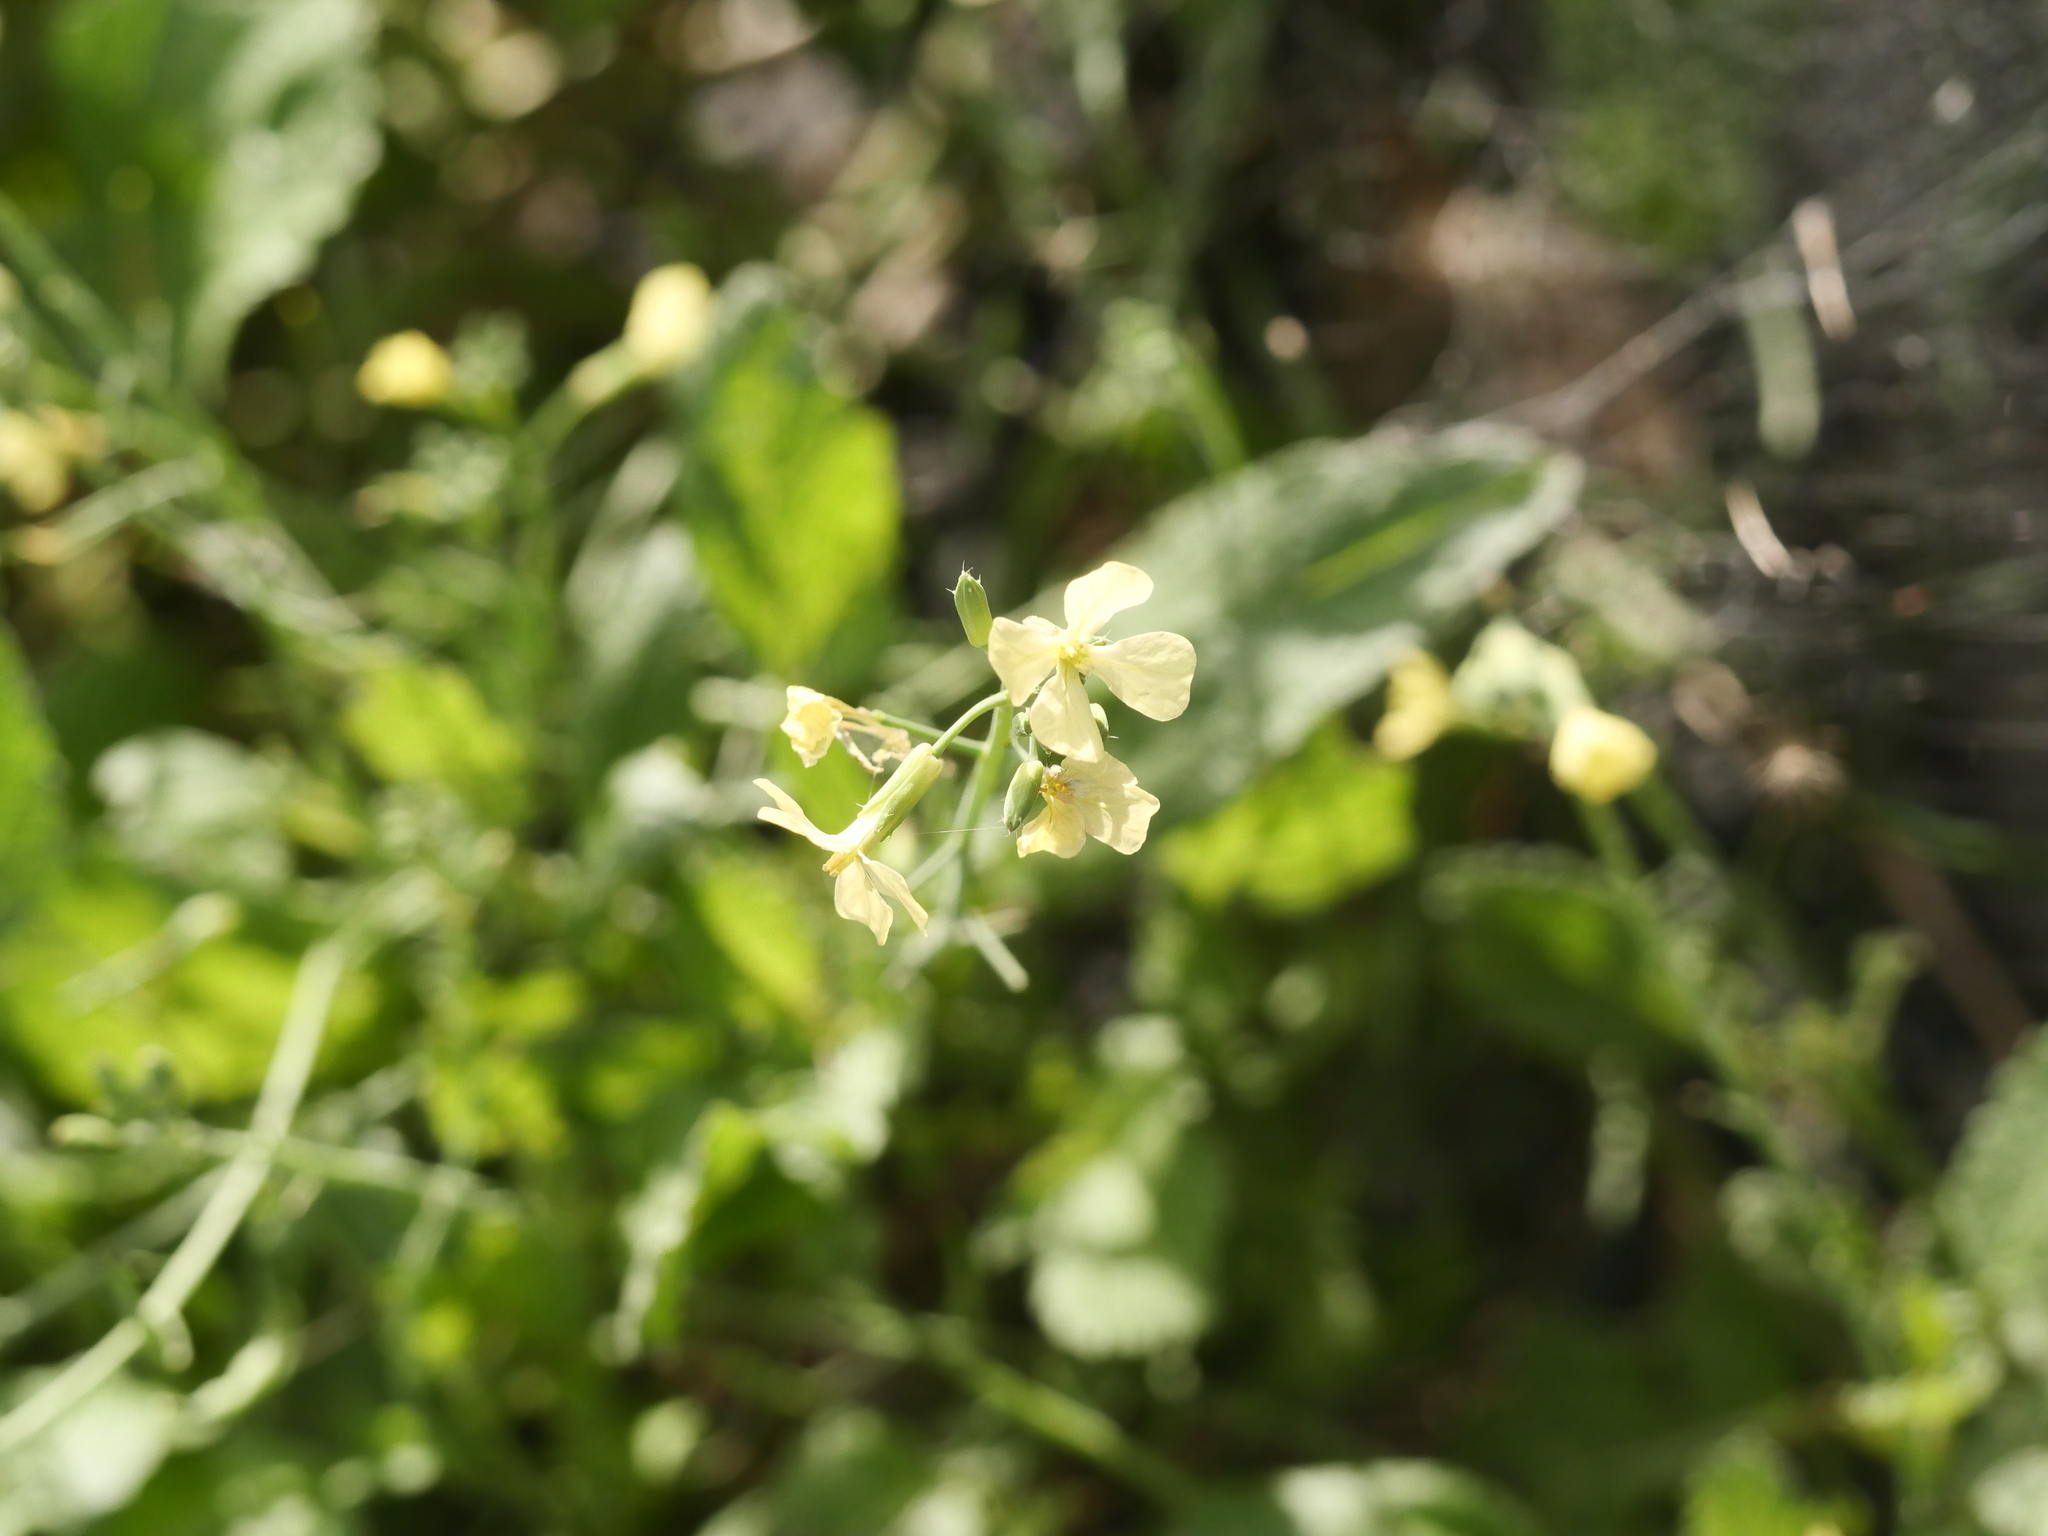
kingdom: Plantae
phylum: Tracheophyta
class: Magnoliopsida
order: Brassicales
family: Brassicaceae
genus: Raphanus
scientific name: Raphanus raphanistrum
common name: Wild radish
